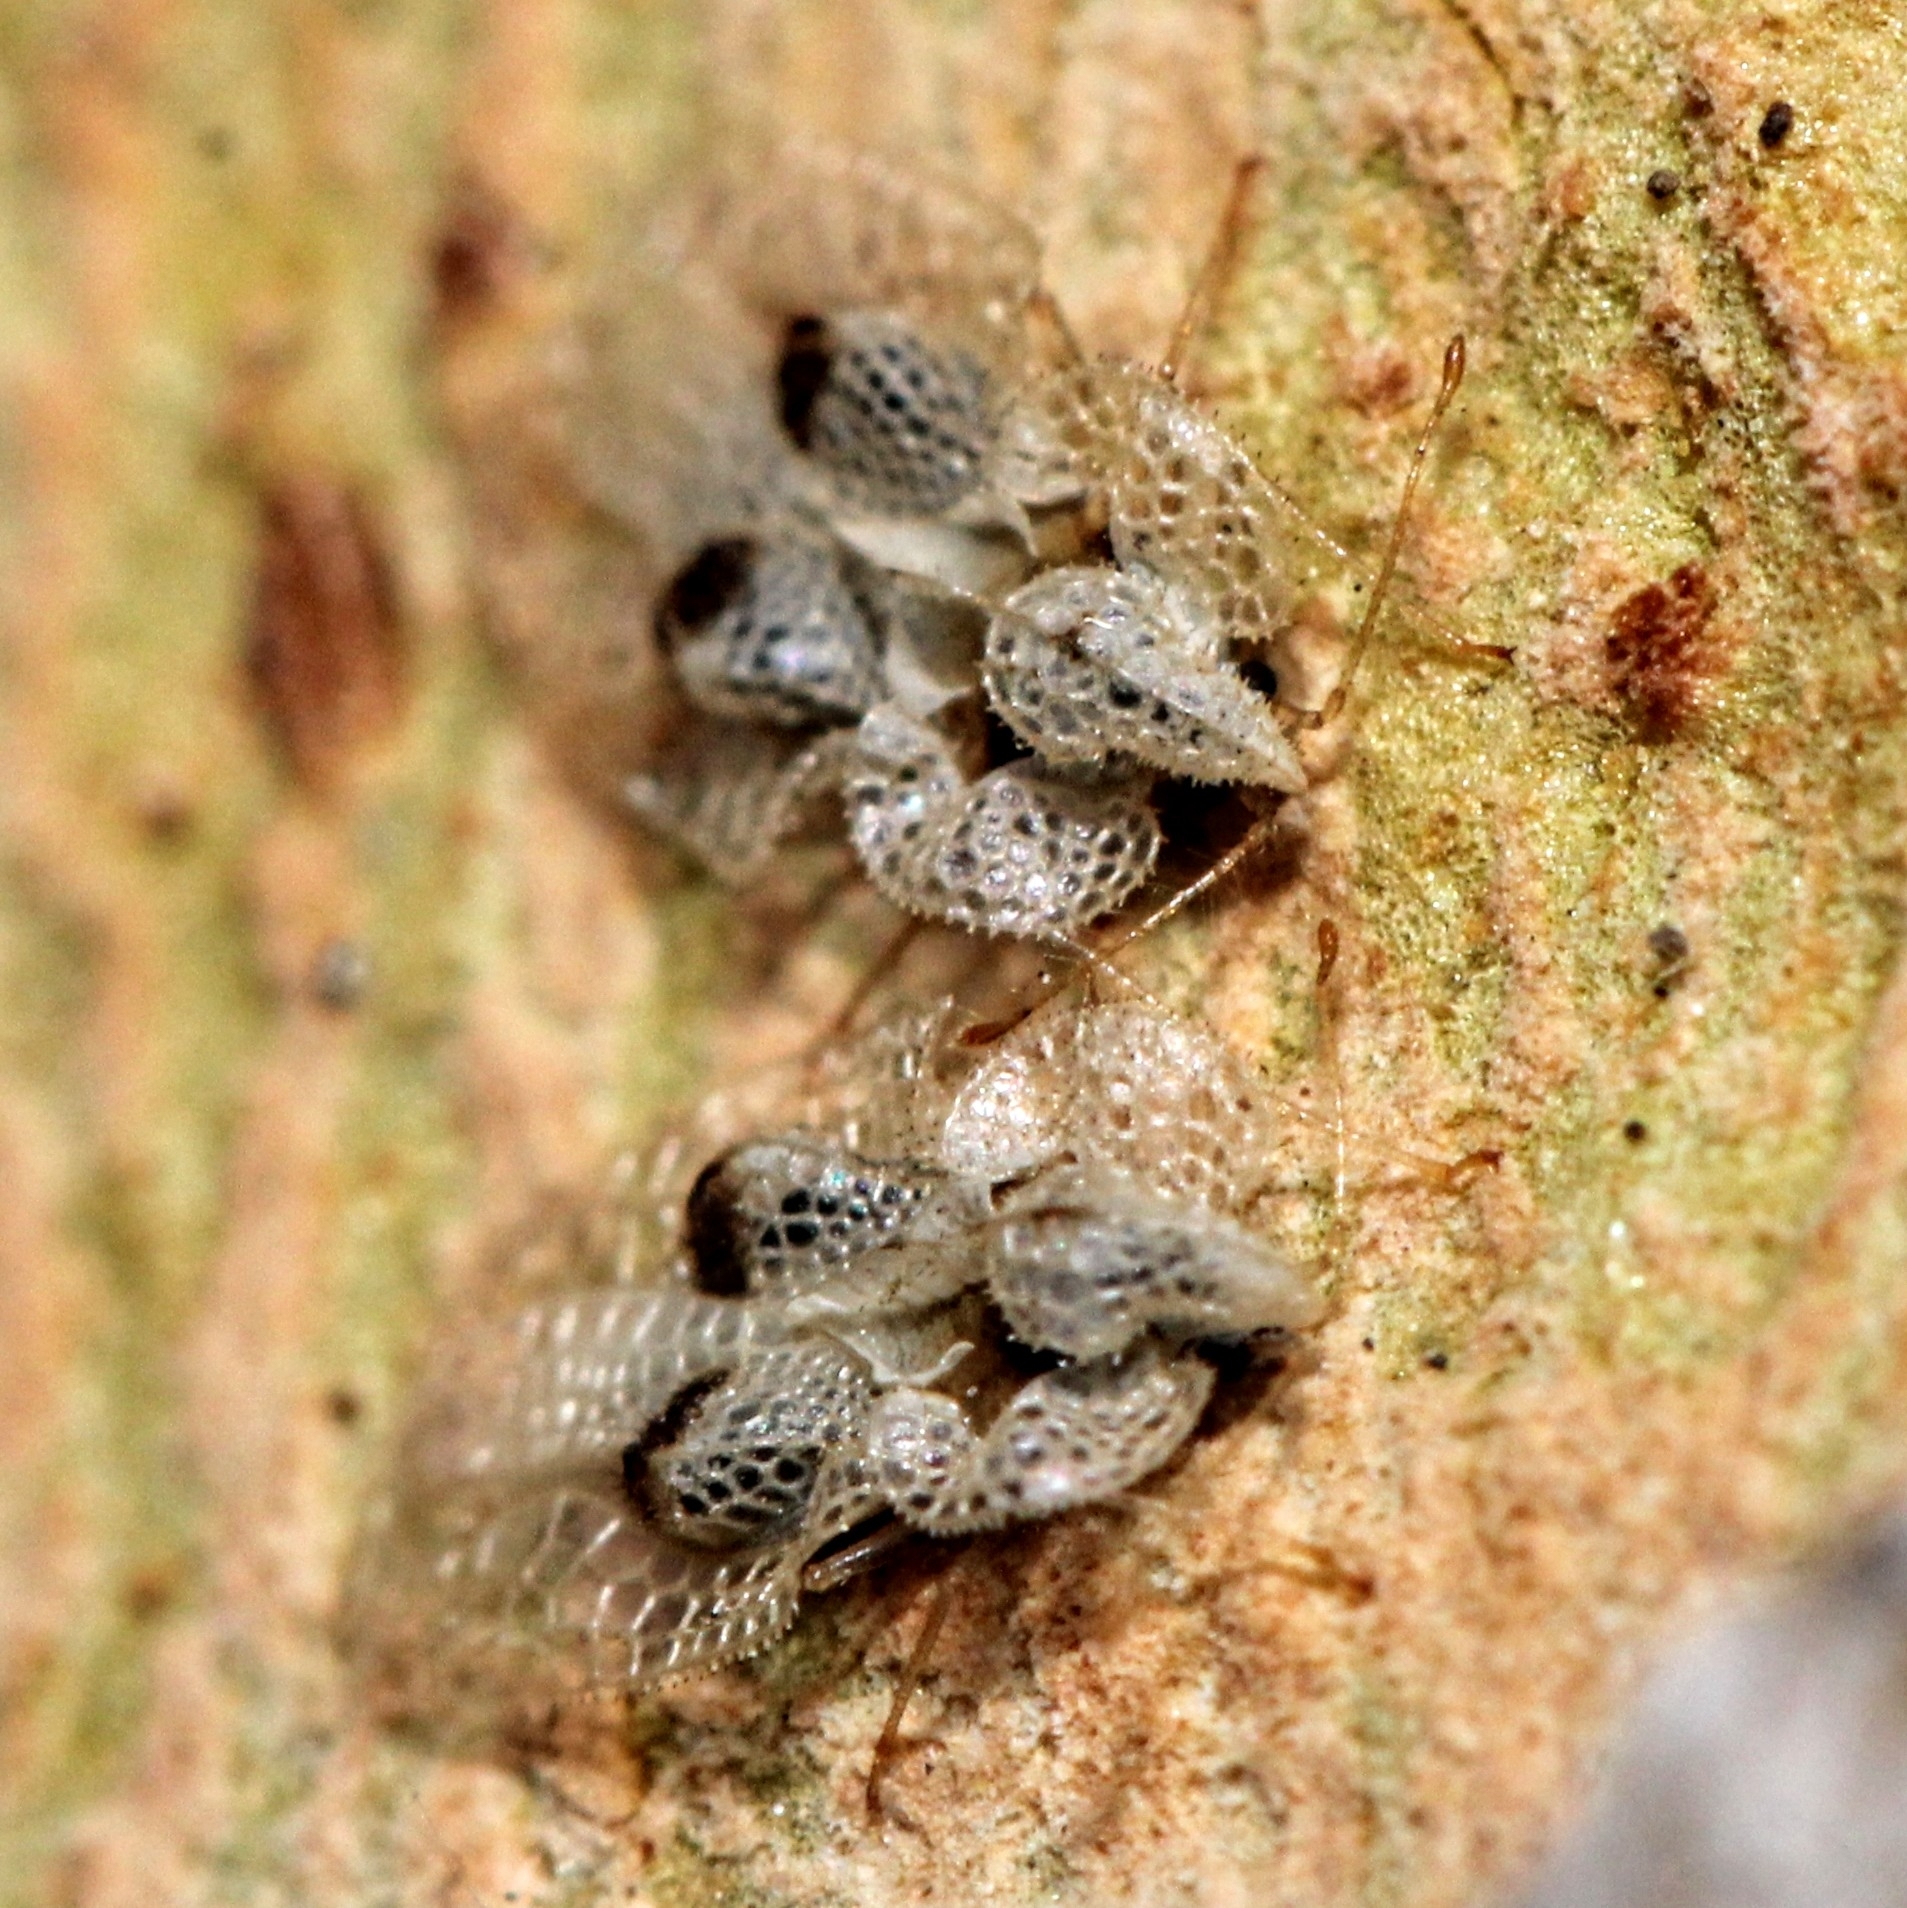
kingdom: Animalia
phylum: Arthropoda
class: Insecta
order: Hemiptera
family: Tingidae
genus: Corythucha
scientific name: Corythucha ciliata
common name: Sycamore lace bug
